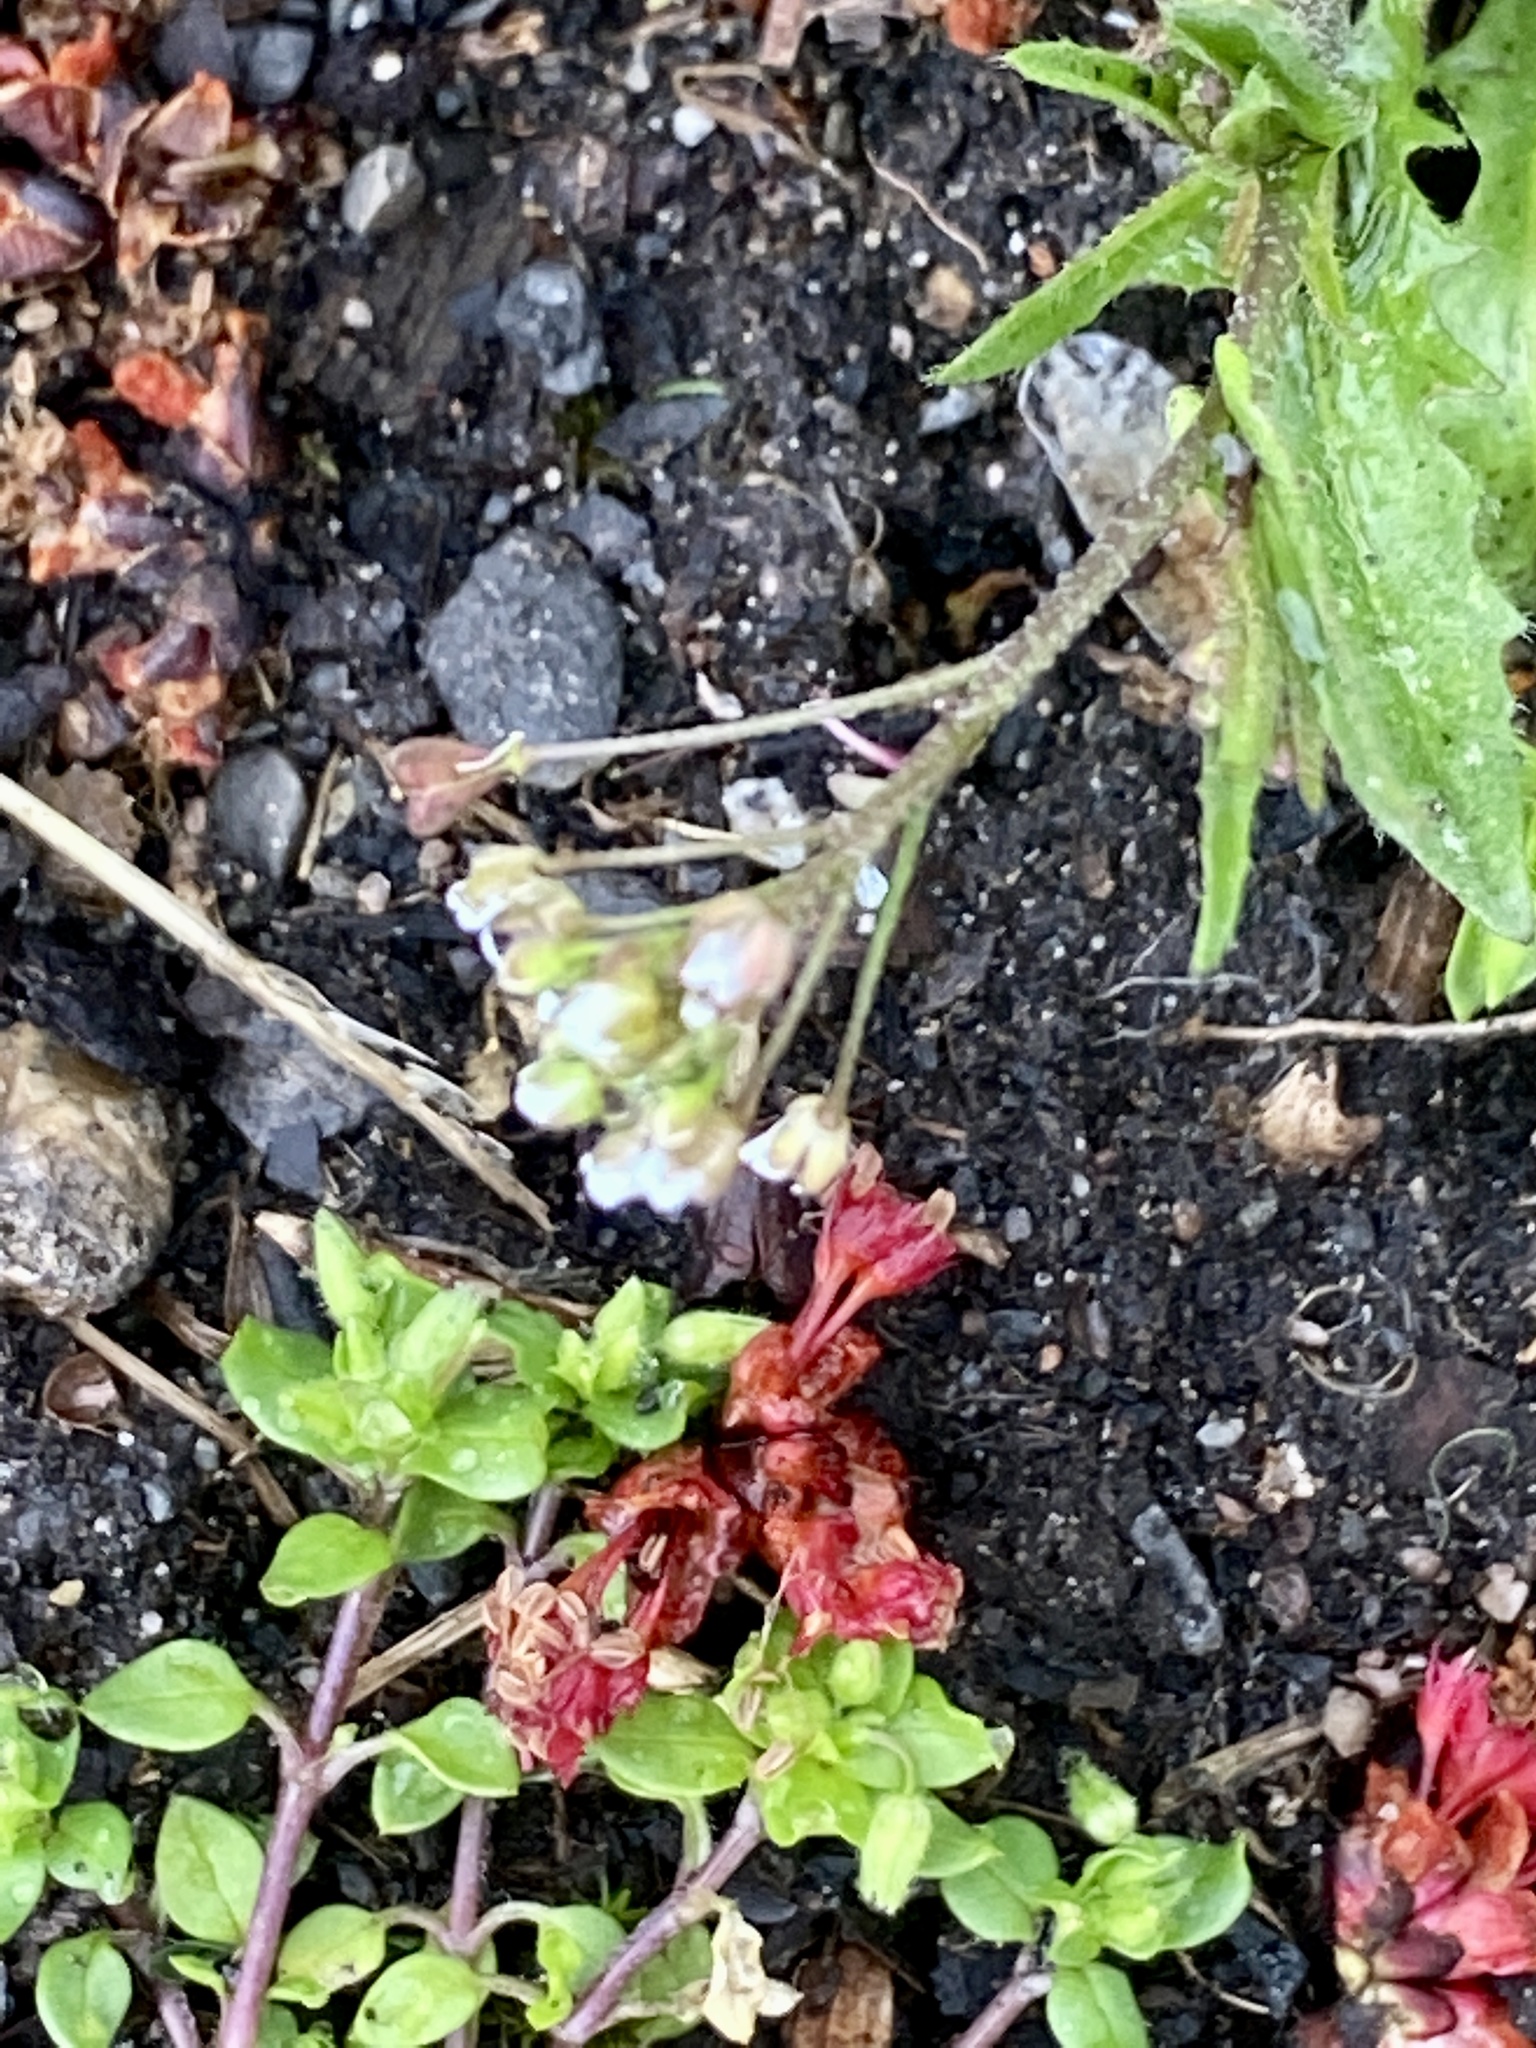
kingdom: Plantae
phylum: Tracheophyta
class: Magnoliopsida
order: Brassicales
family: Brassicaceae
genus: Capsella
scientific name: Capsella bursa-pastoris
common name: Shepherd's purse
